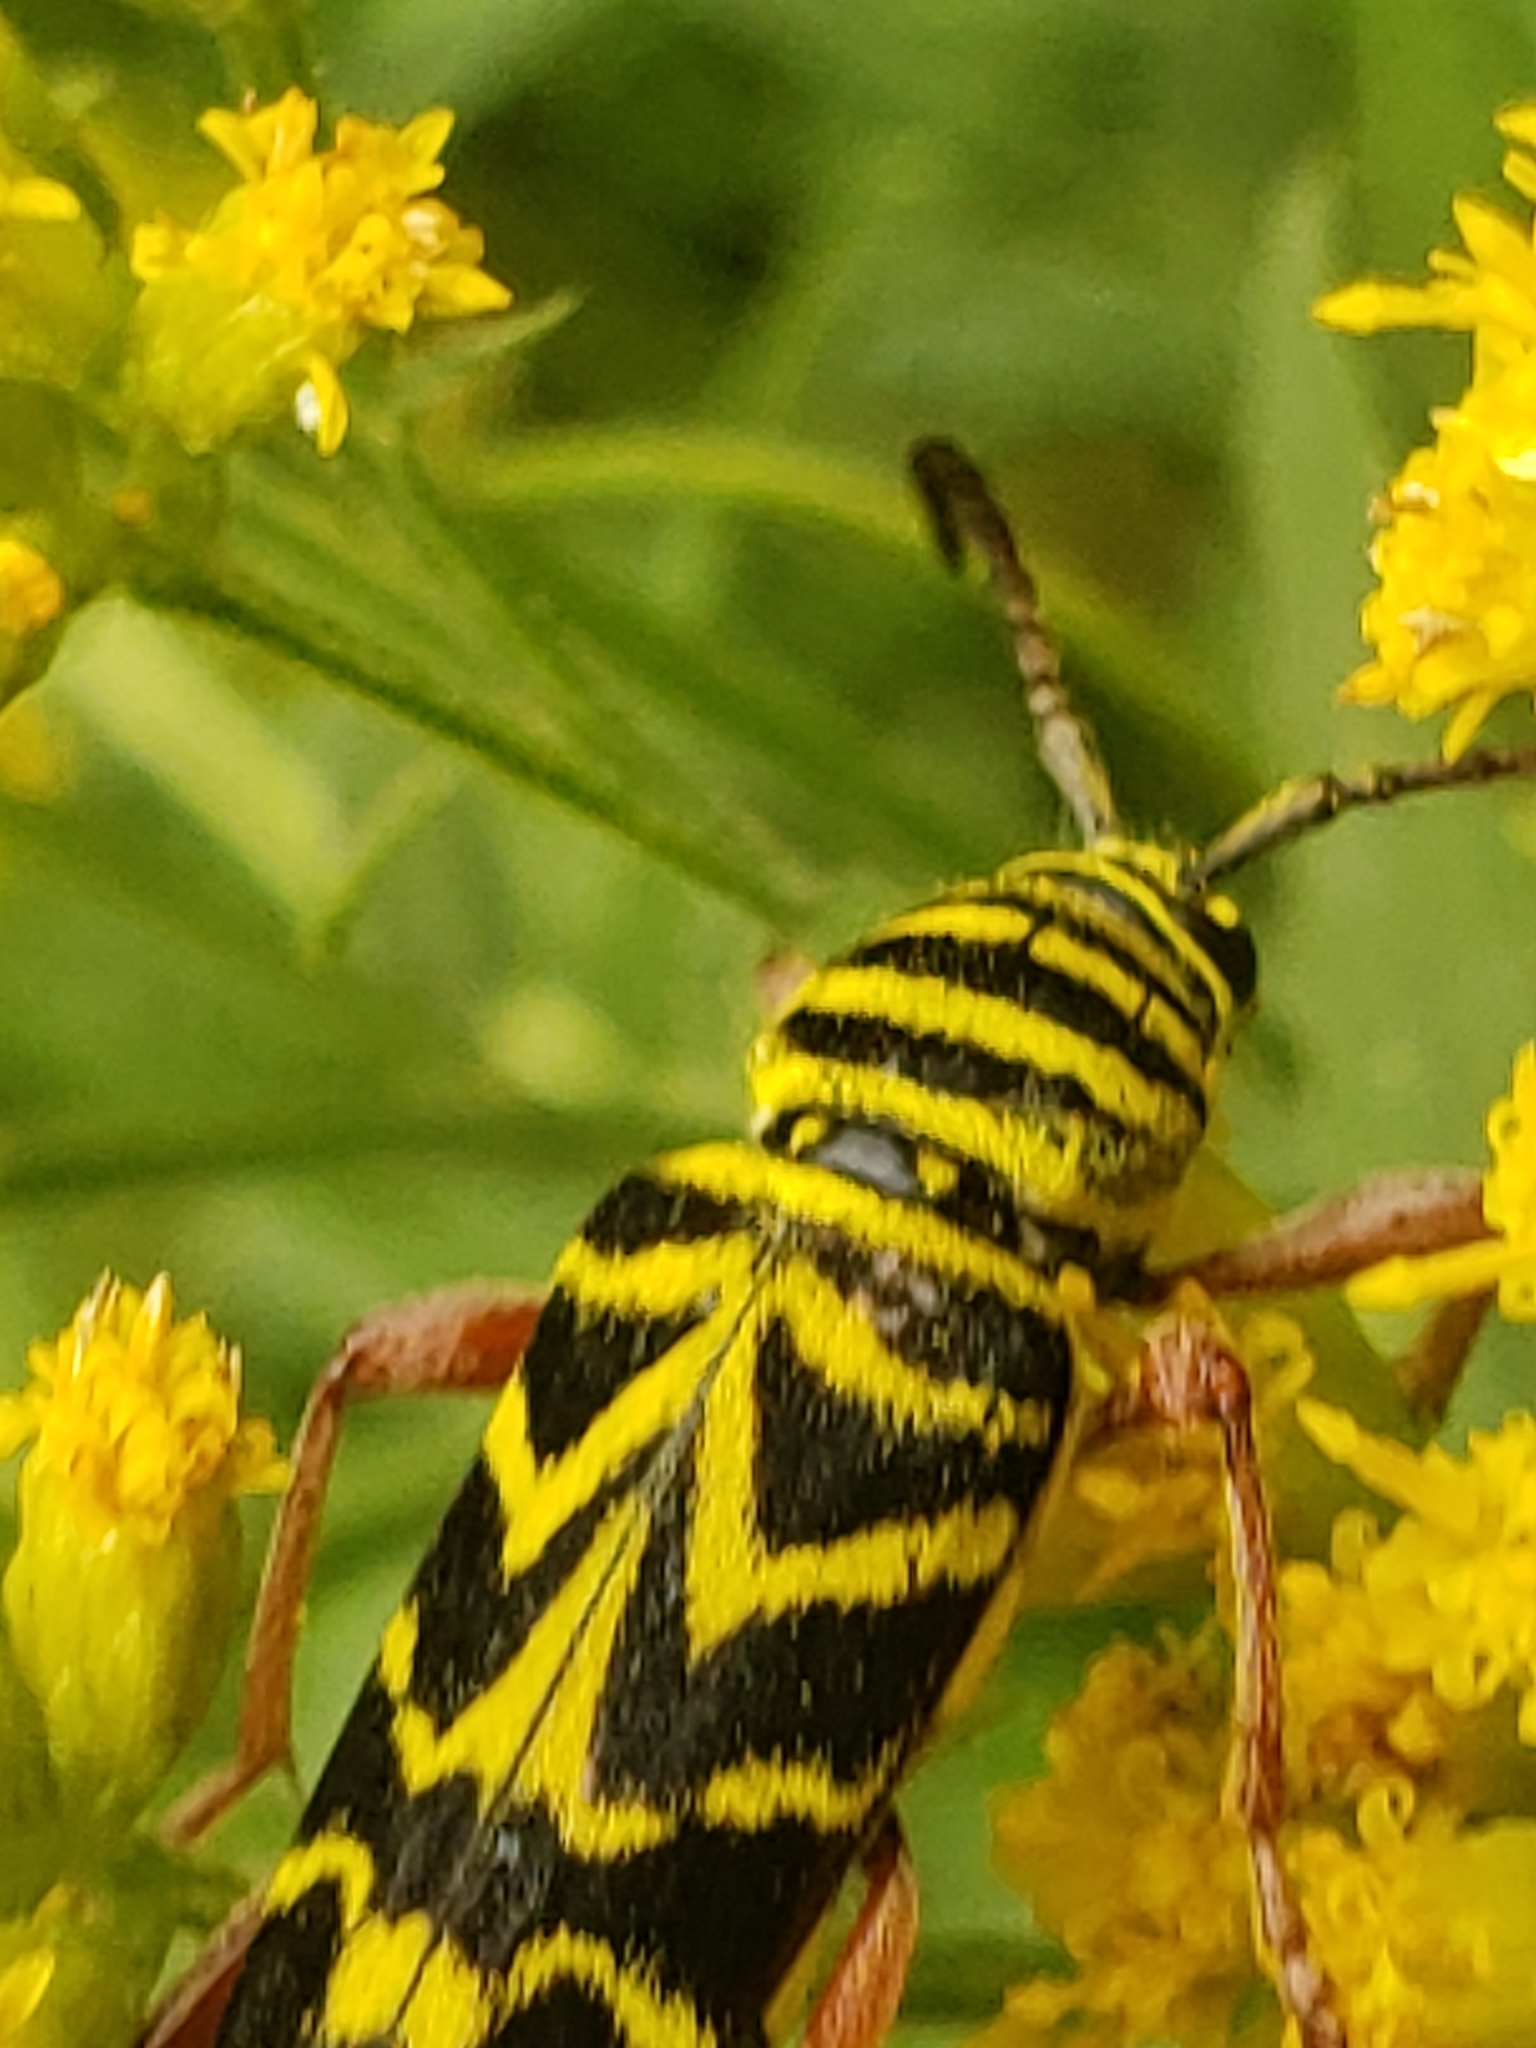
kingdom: Animalia
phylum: Arthropoda
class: Insecta
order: Coleoptera
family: Cerambycidae
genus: Megacyllene
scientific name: Megacyllene robiniae
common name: Locust borer
